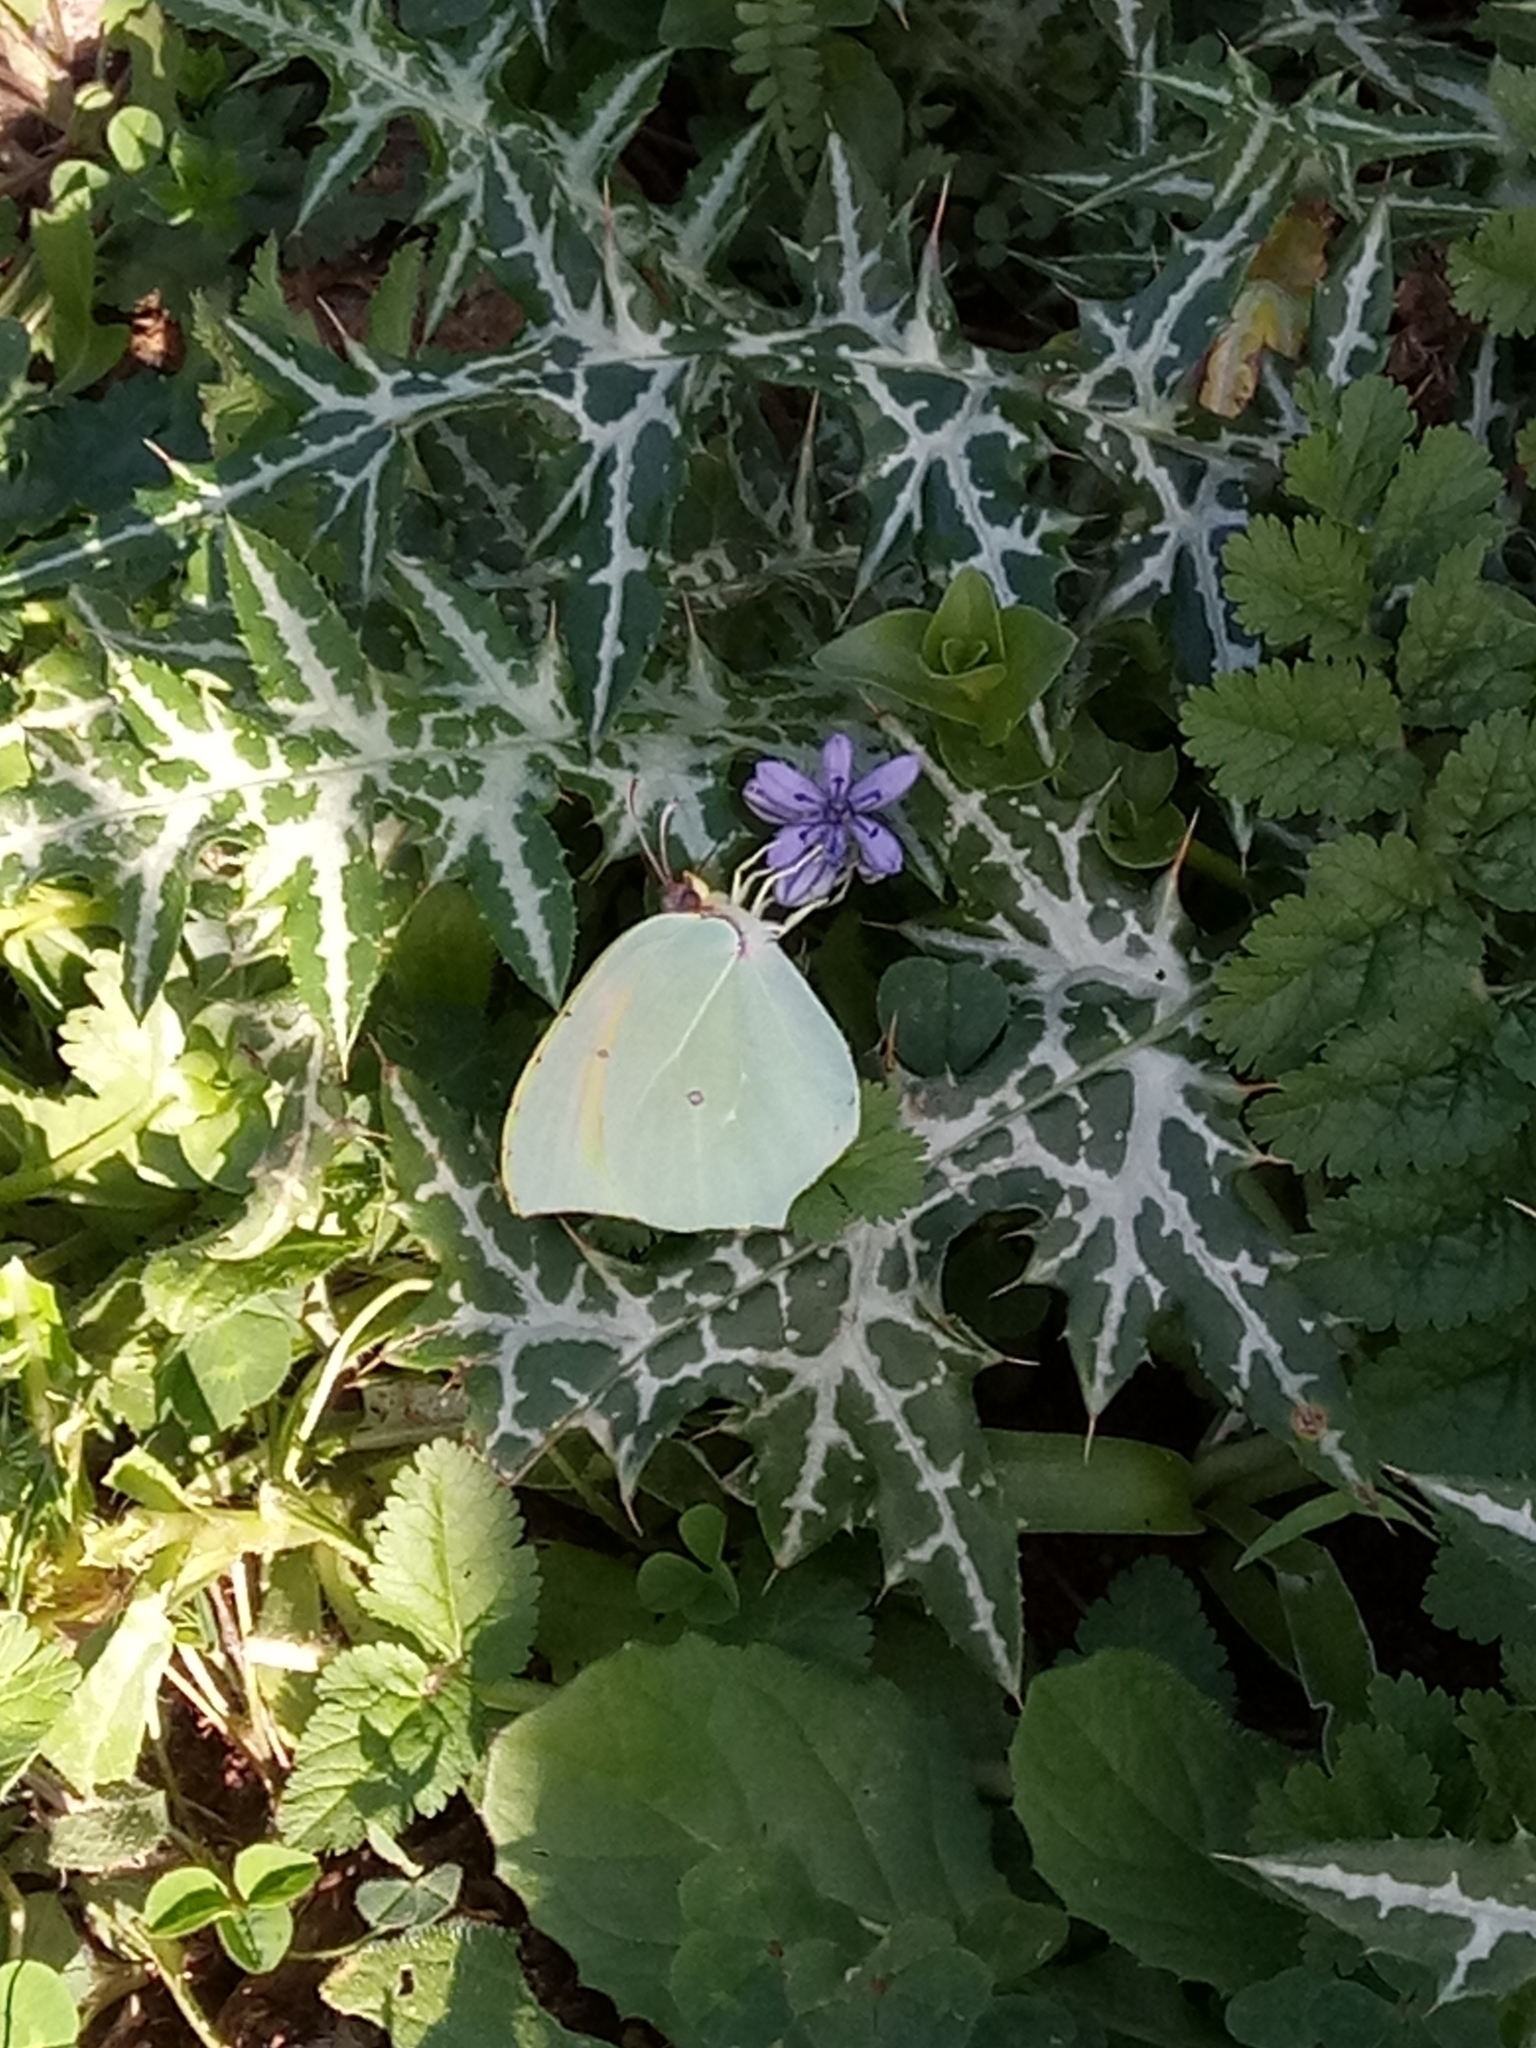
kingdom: Animalia
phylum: Arthropoda
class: Insecta
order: Lepidoptera
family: Pieridae
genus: Gonepteryx
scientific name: Gonepteryx cleopatra
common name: Cleopatra
